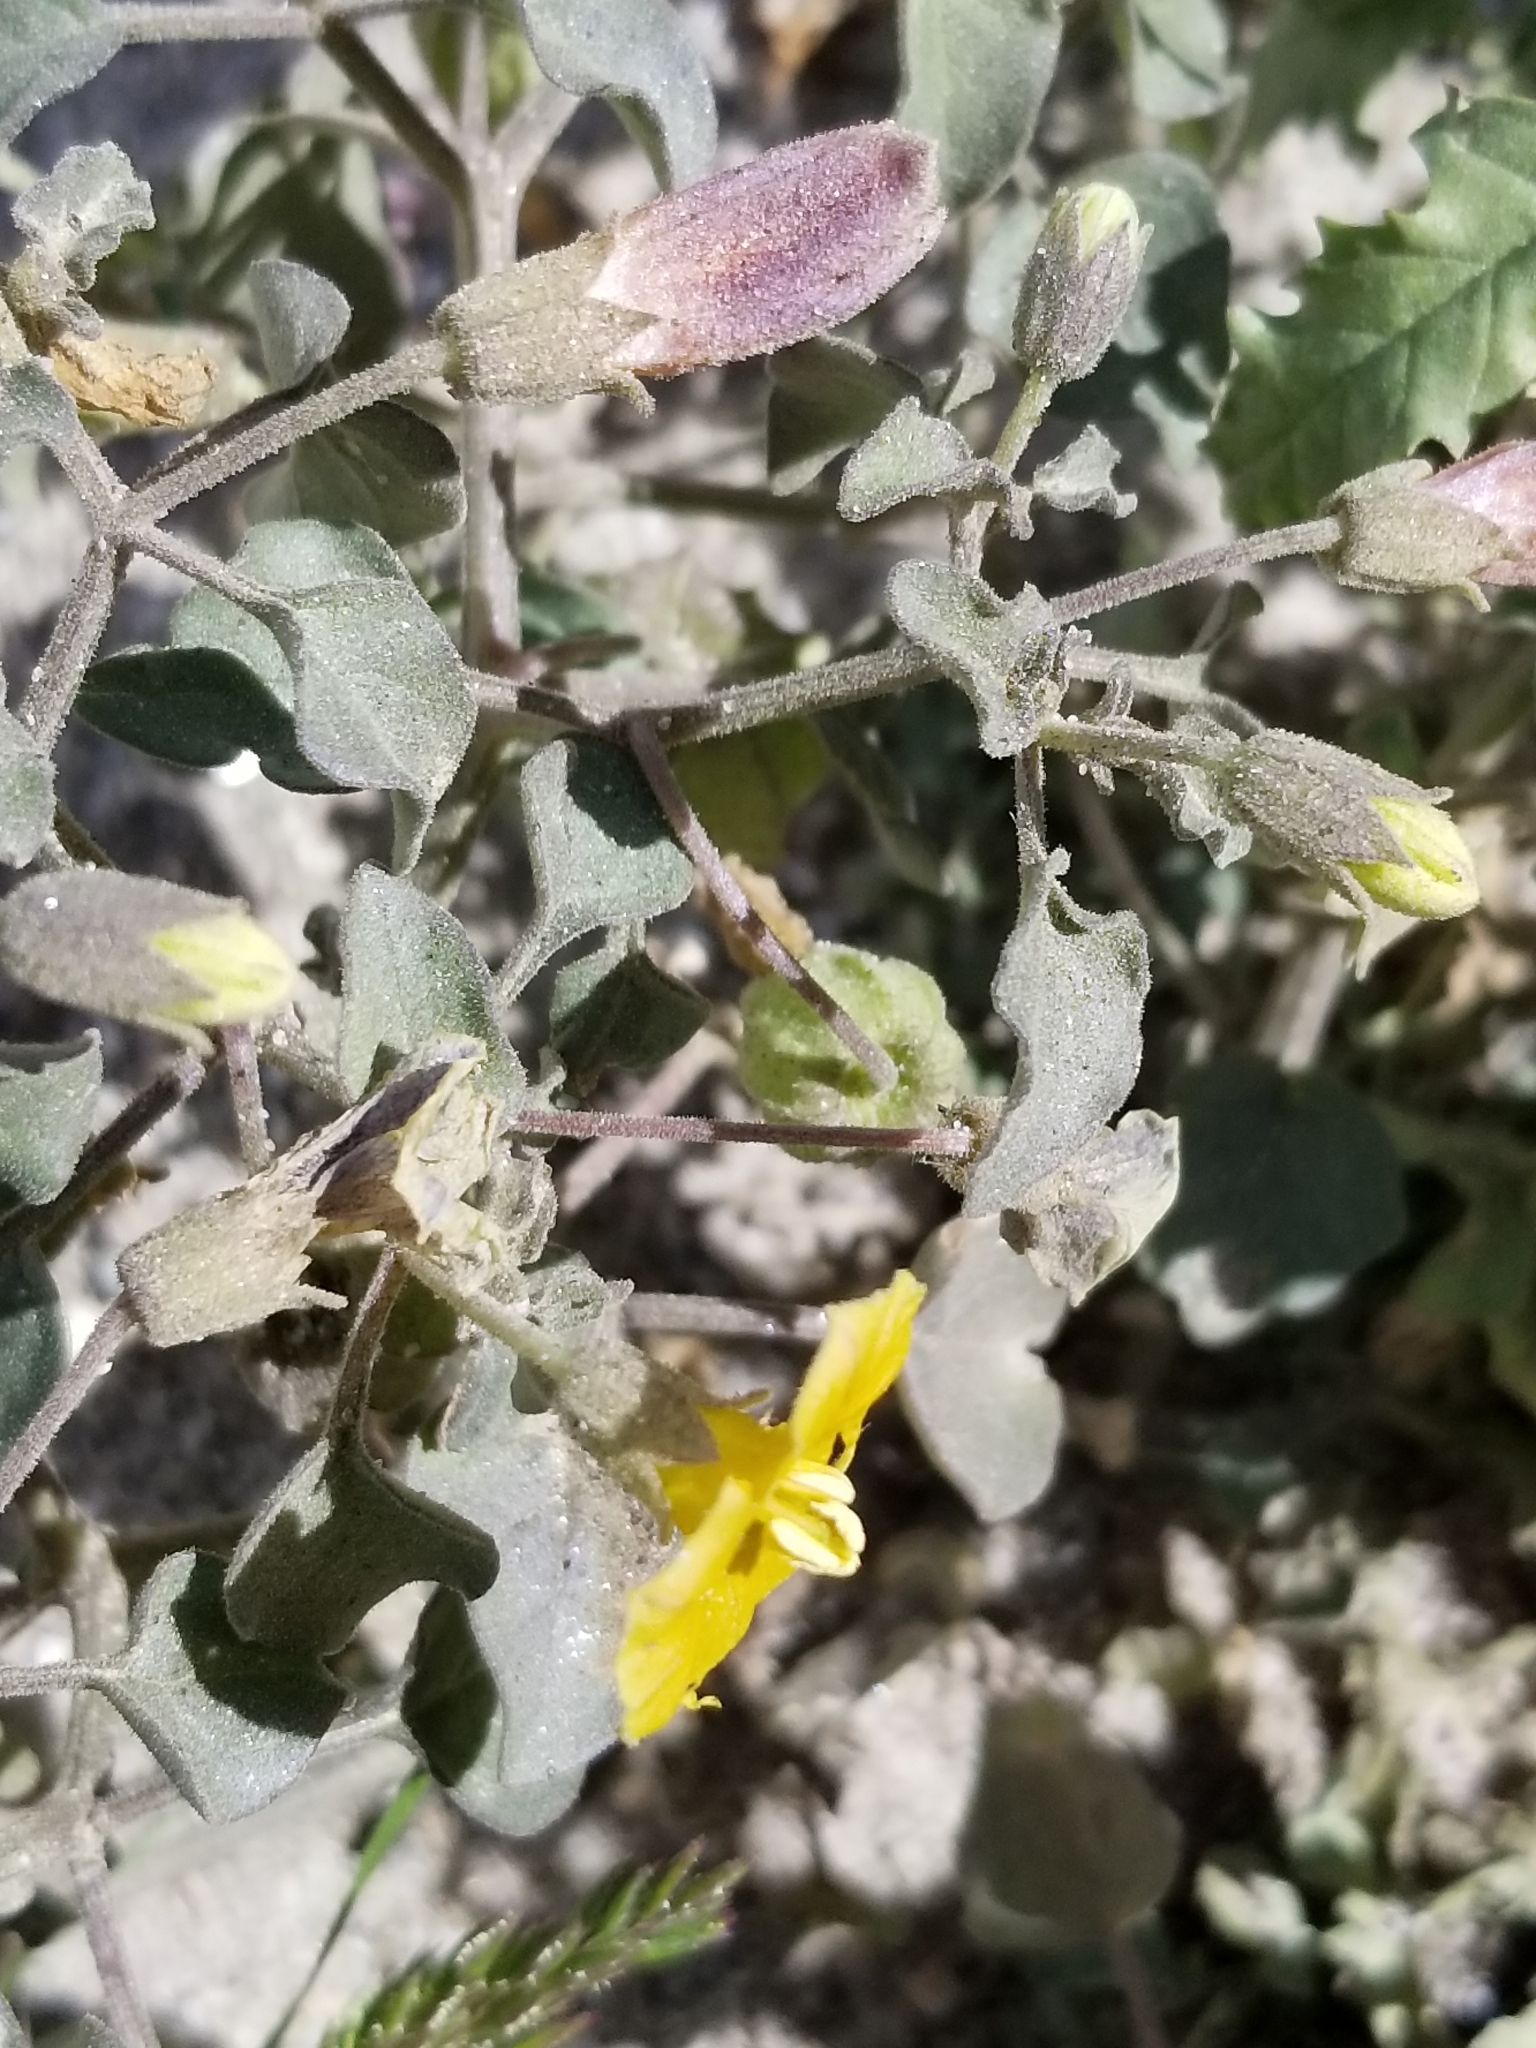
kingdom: Plantae
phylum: Tracheophyta
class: Magnoliopsida
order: Solanales
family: Solanaceae
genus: Physalis
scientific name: Physalis crassifolia
